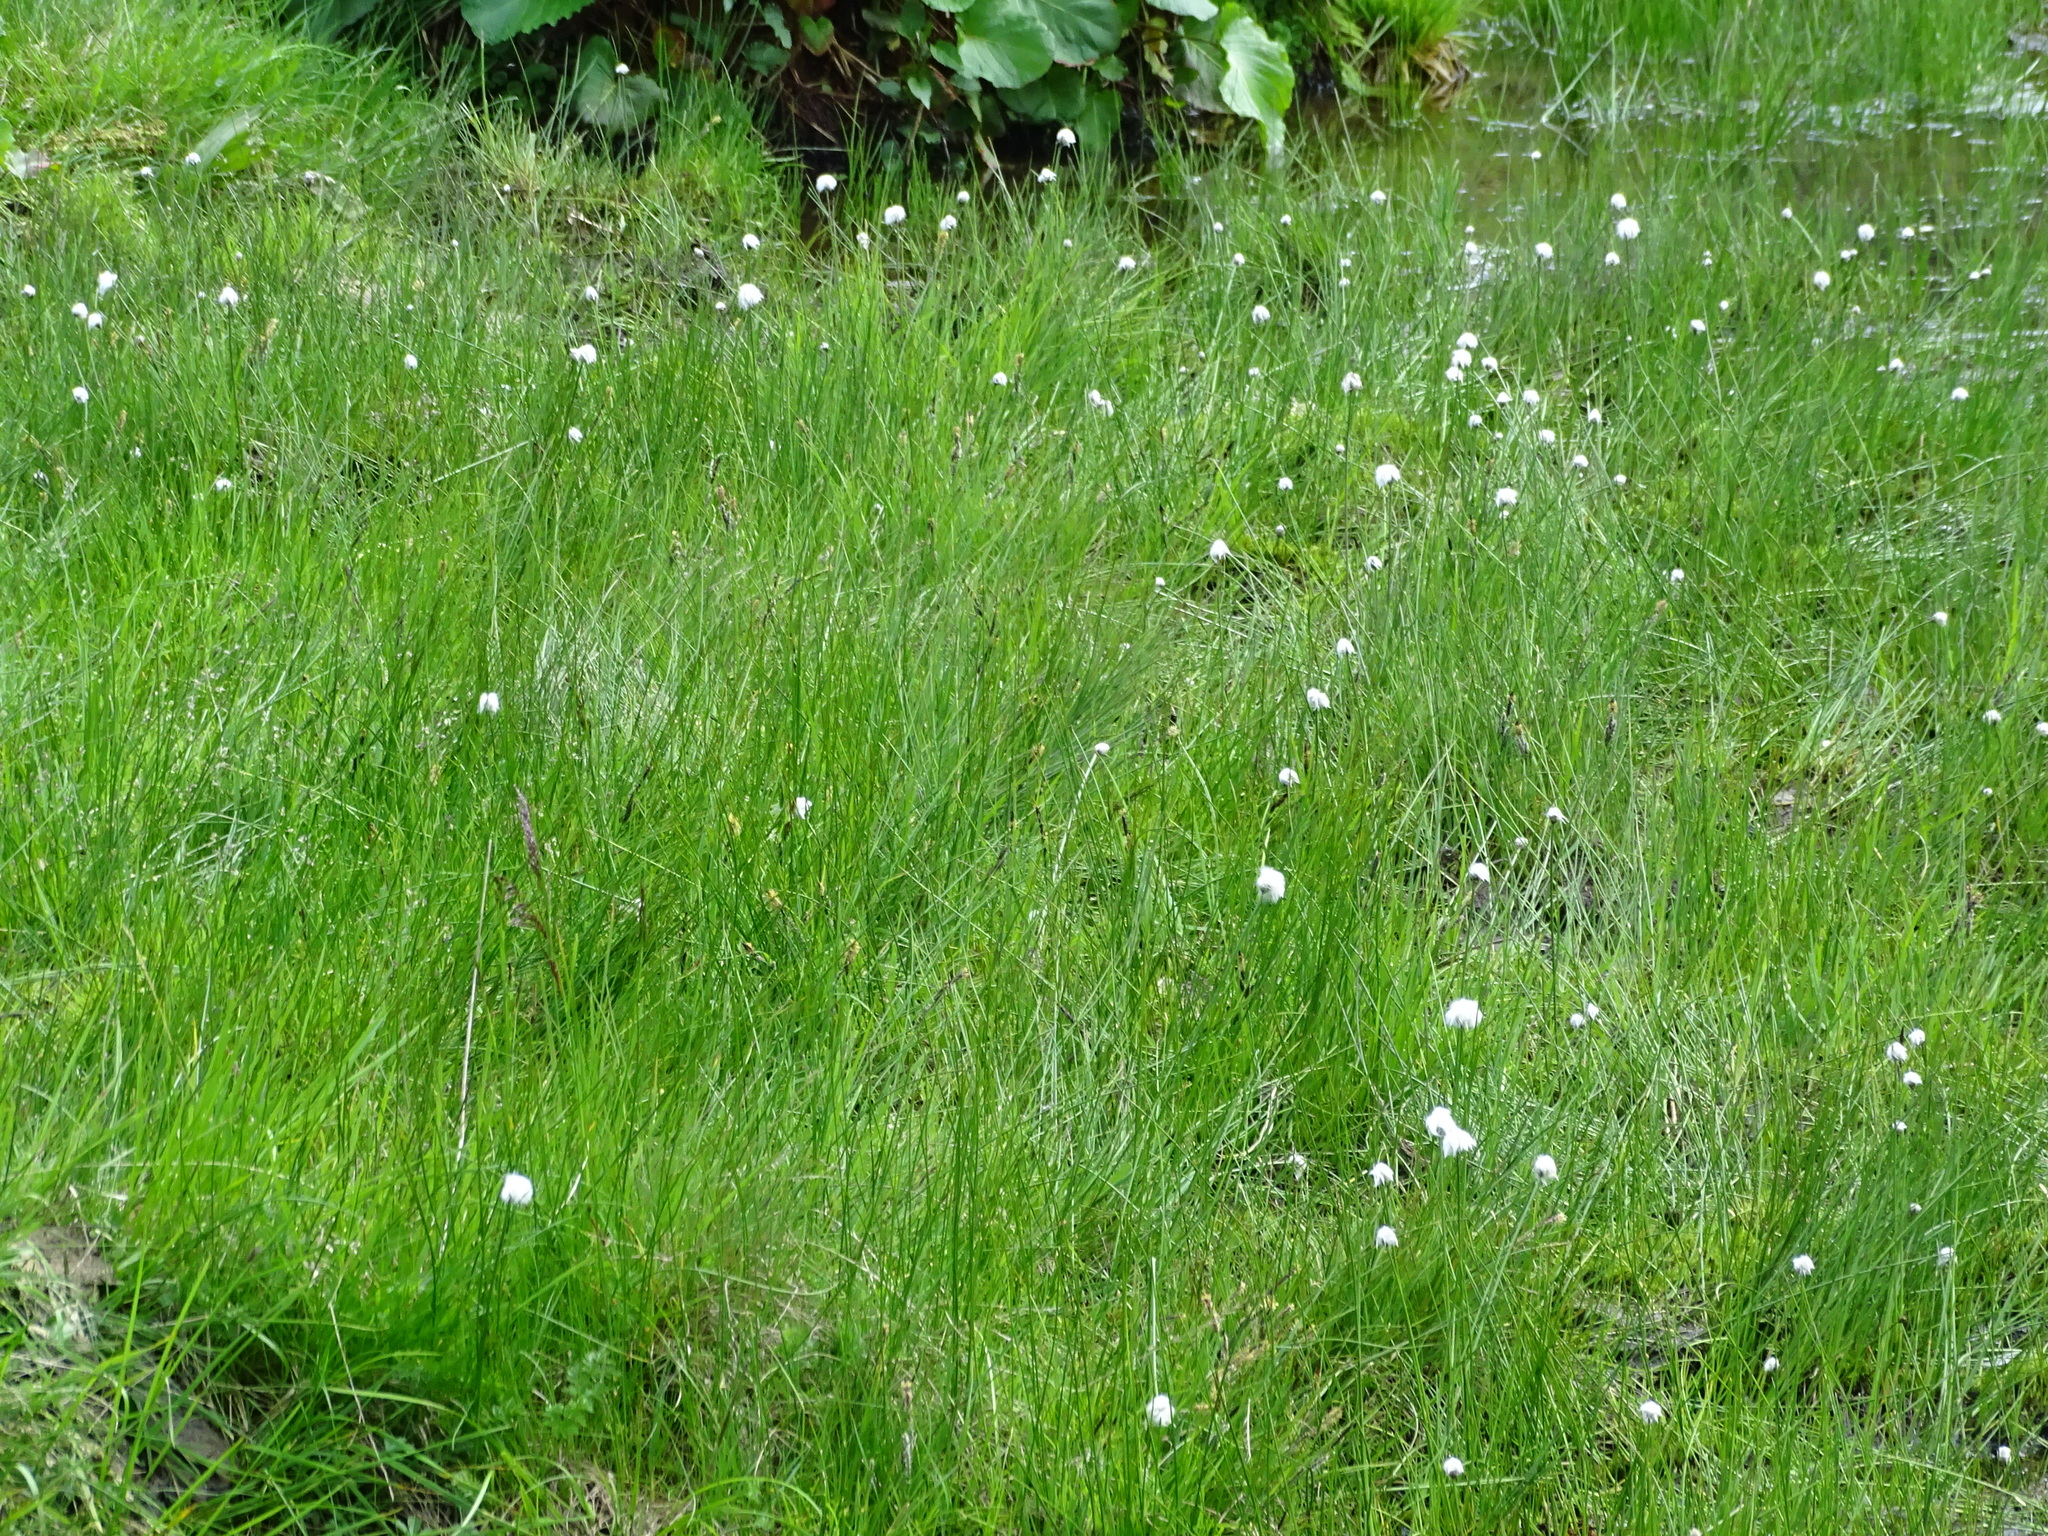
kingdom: Plantae
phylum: Tracheophyta
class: Liliopsida
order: Poales
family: Cyperaceae
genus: Eriophorum
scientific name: Eriophorum scheuchzeri
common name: Scheuchzer's cottongrass
